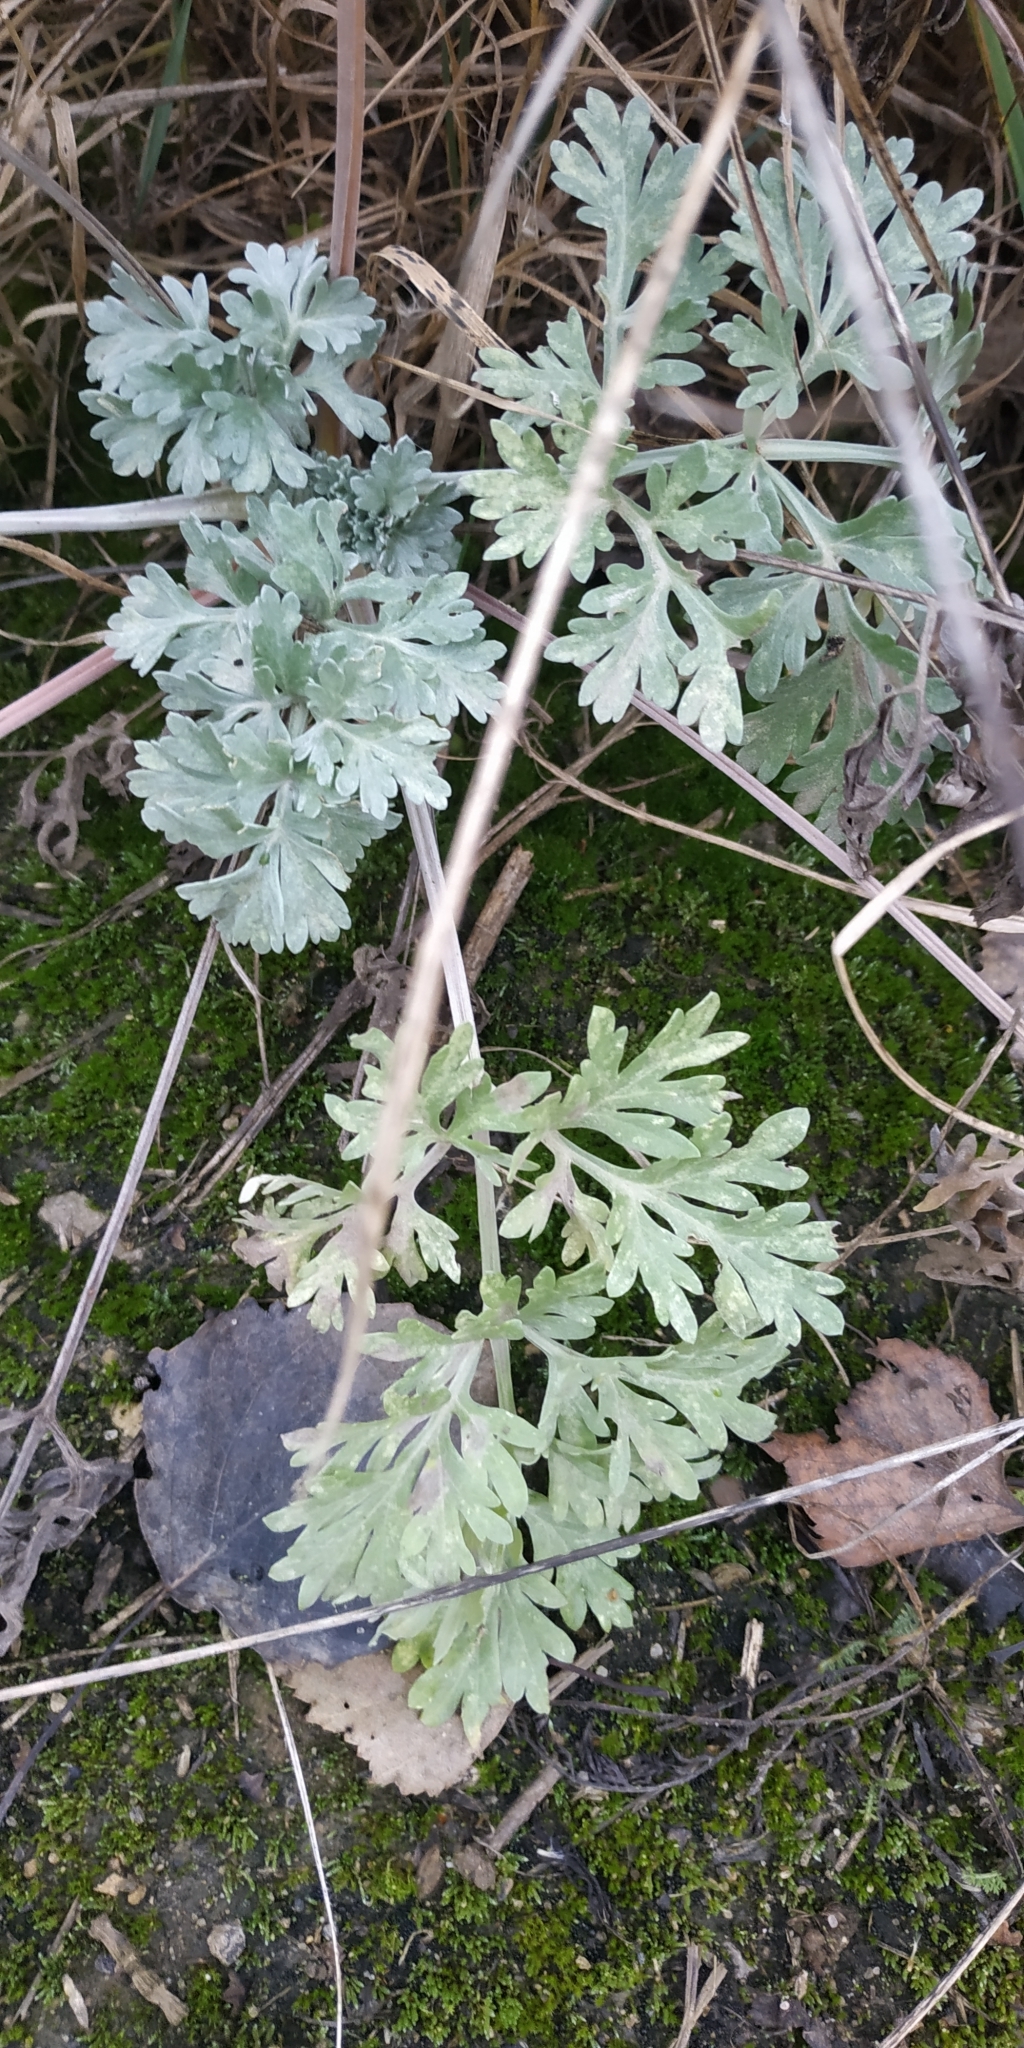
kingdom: Plantae
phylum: Tracheophyta
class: Magnoliopsida
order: Asterales
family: Asteraceae
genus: Artemisia
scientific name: Artemisia absinthium
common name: Wormwood
